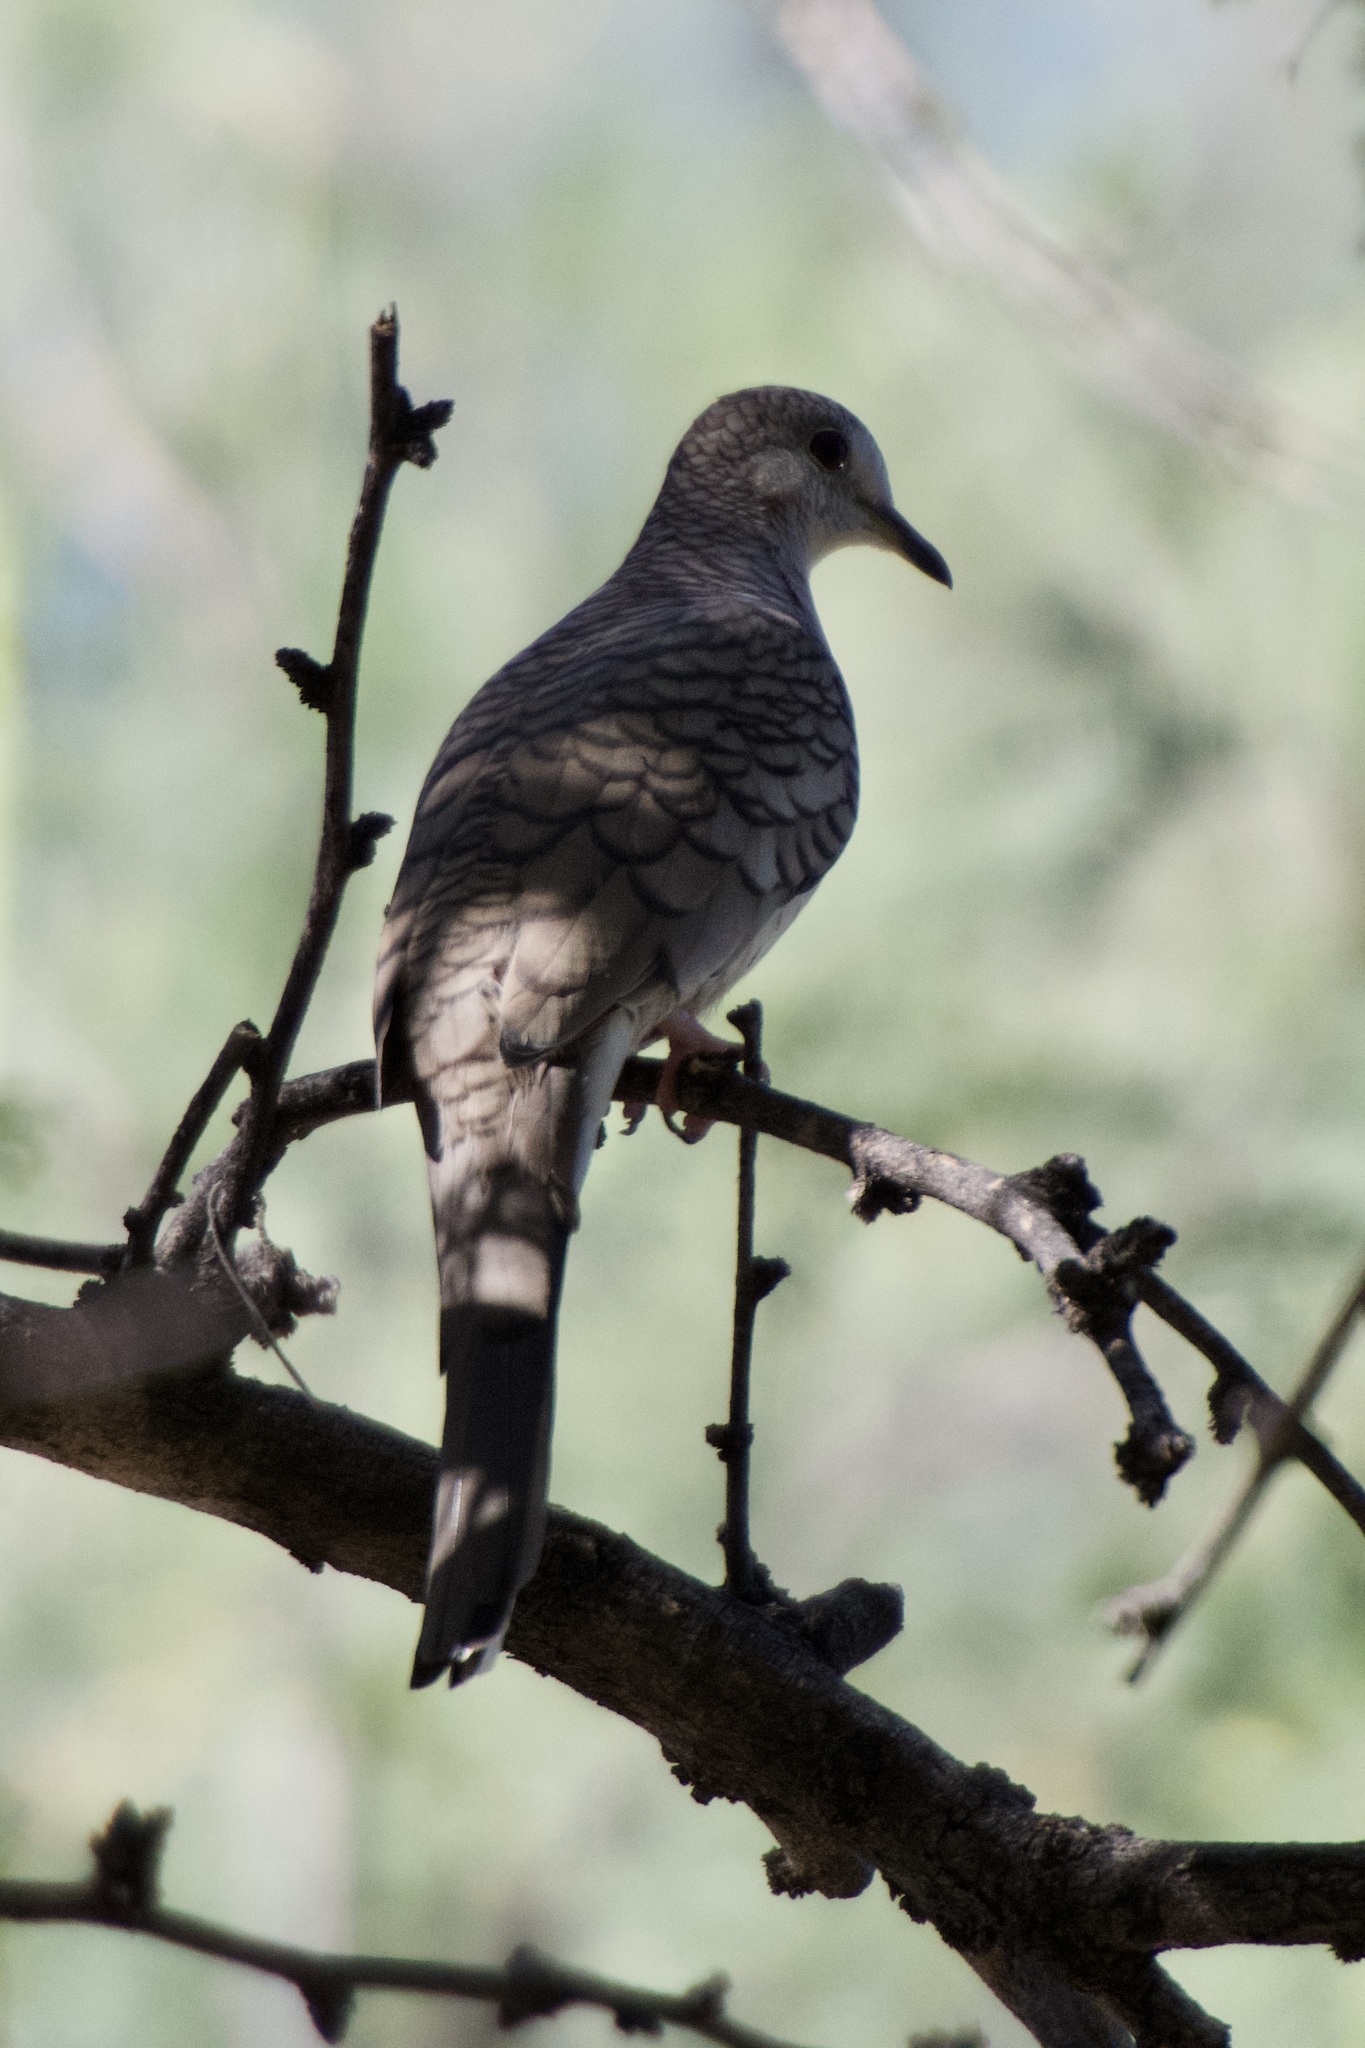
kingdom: Animalia
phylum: Chordata
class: Aves
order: Columbiformes
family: Columbidae
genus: Columbina
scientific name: Columbina inca
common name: Inca dove
